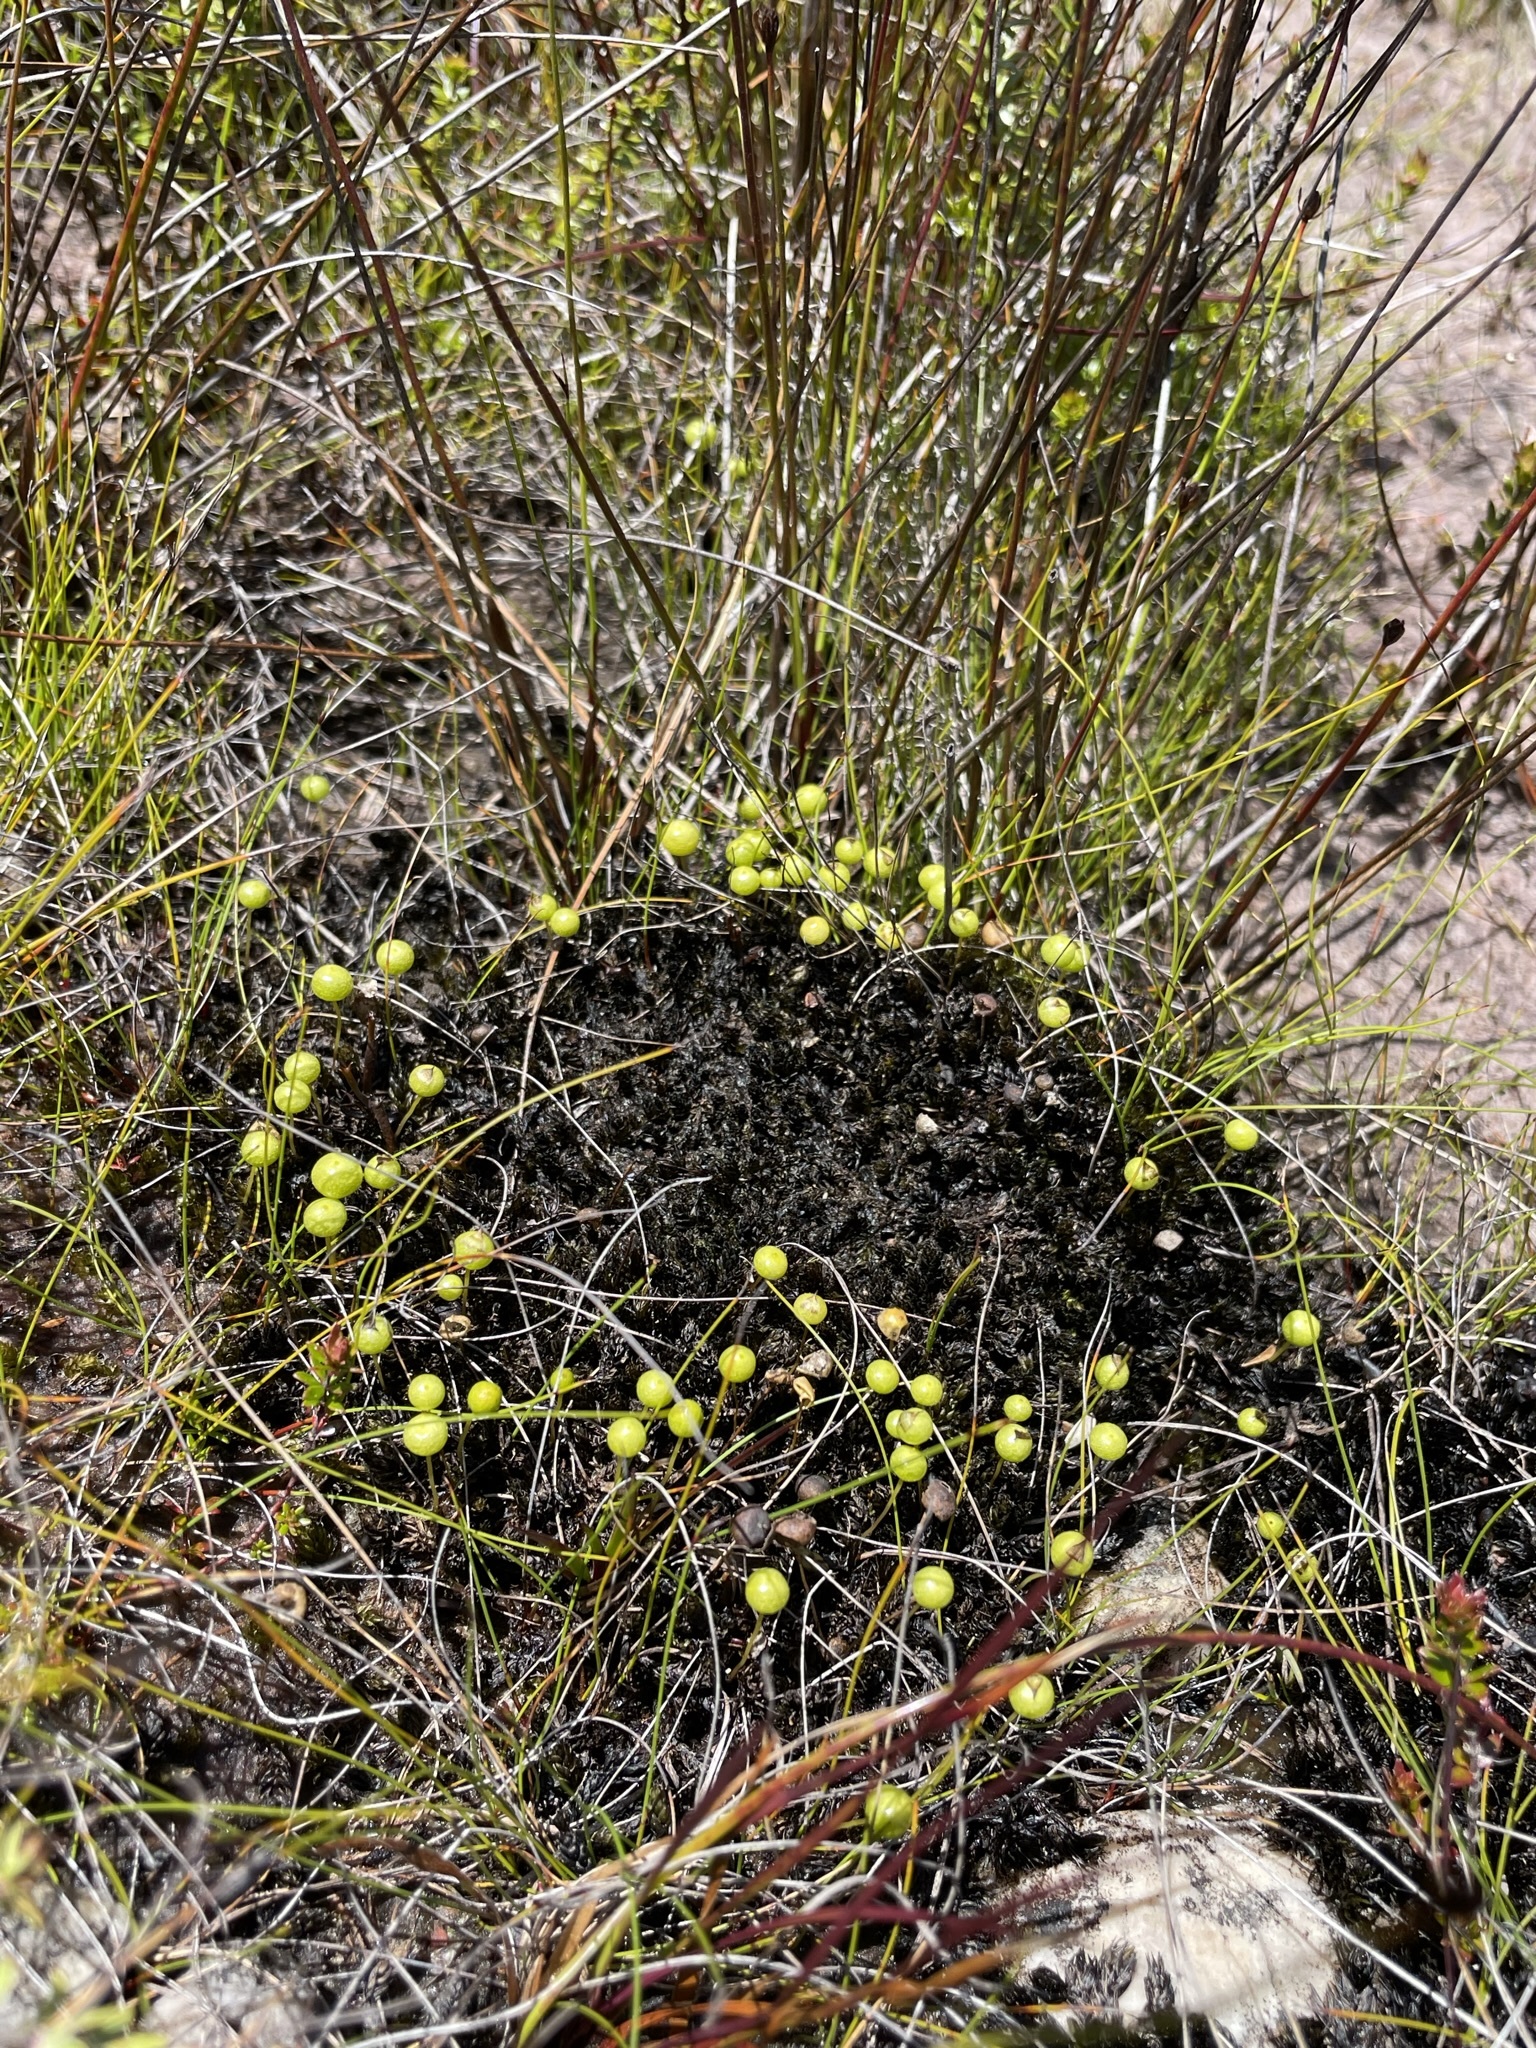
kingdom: Plantae
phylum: Bryophyta
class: Bryopsida
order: Pottiales
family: Pleurophascaceae
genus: Pleurophascum
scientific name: Pleurophascum grandiglobum
